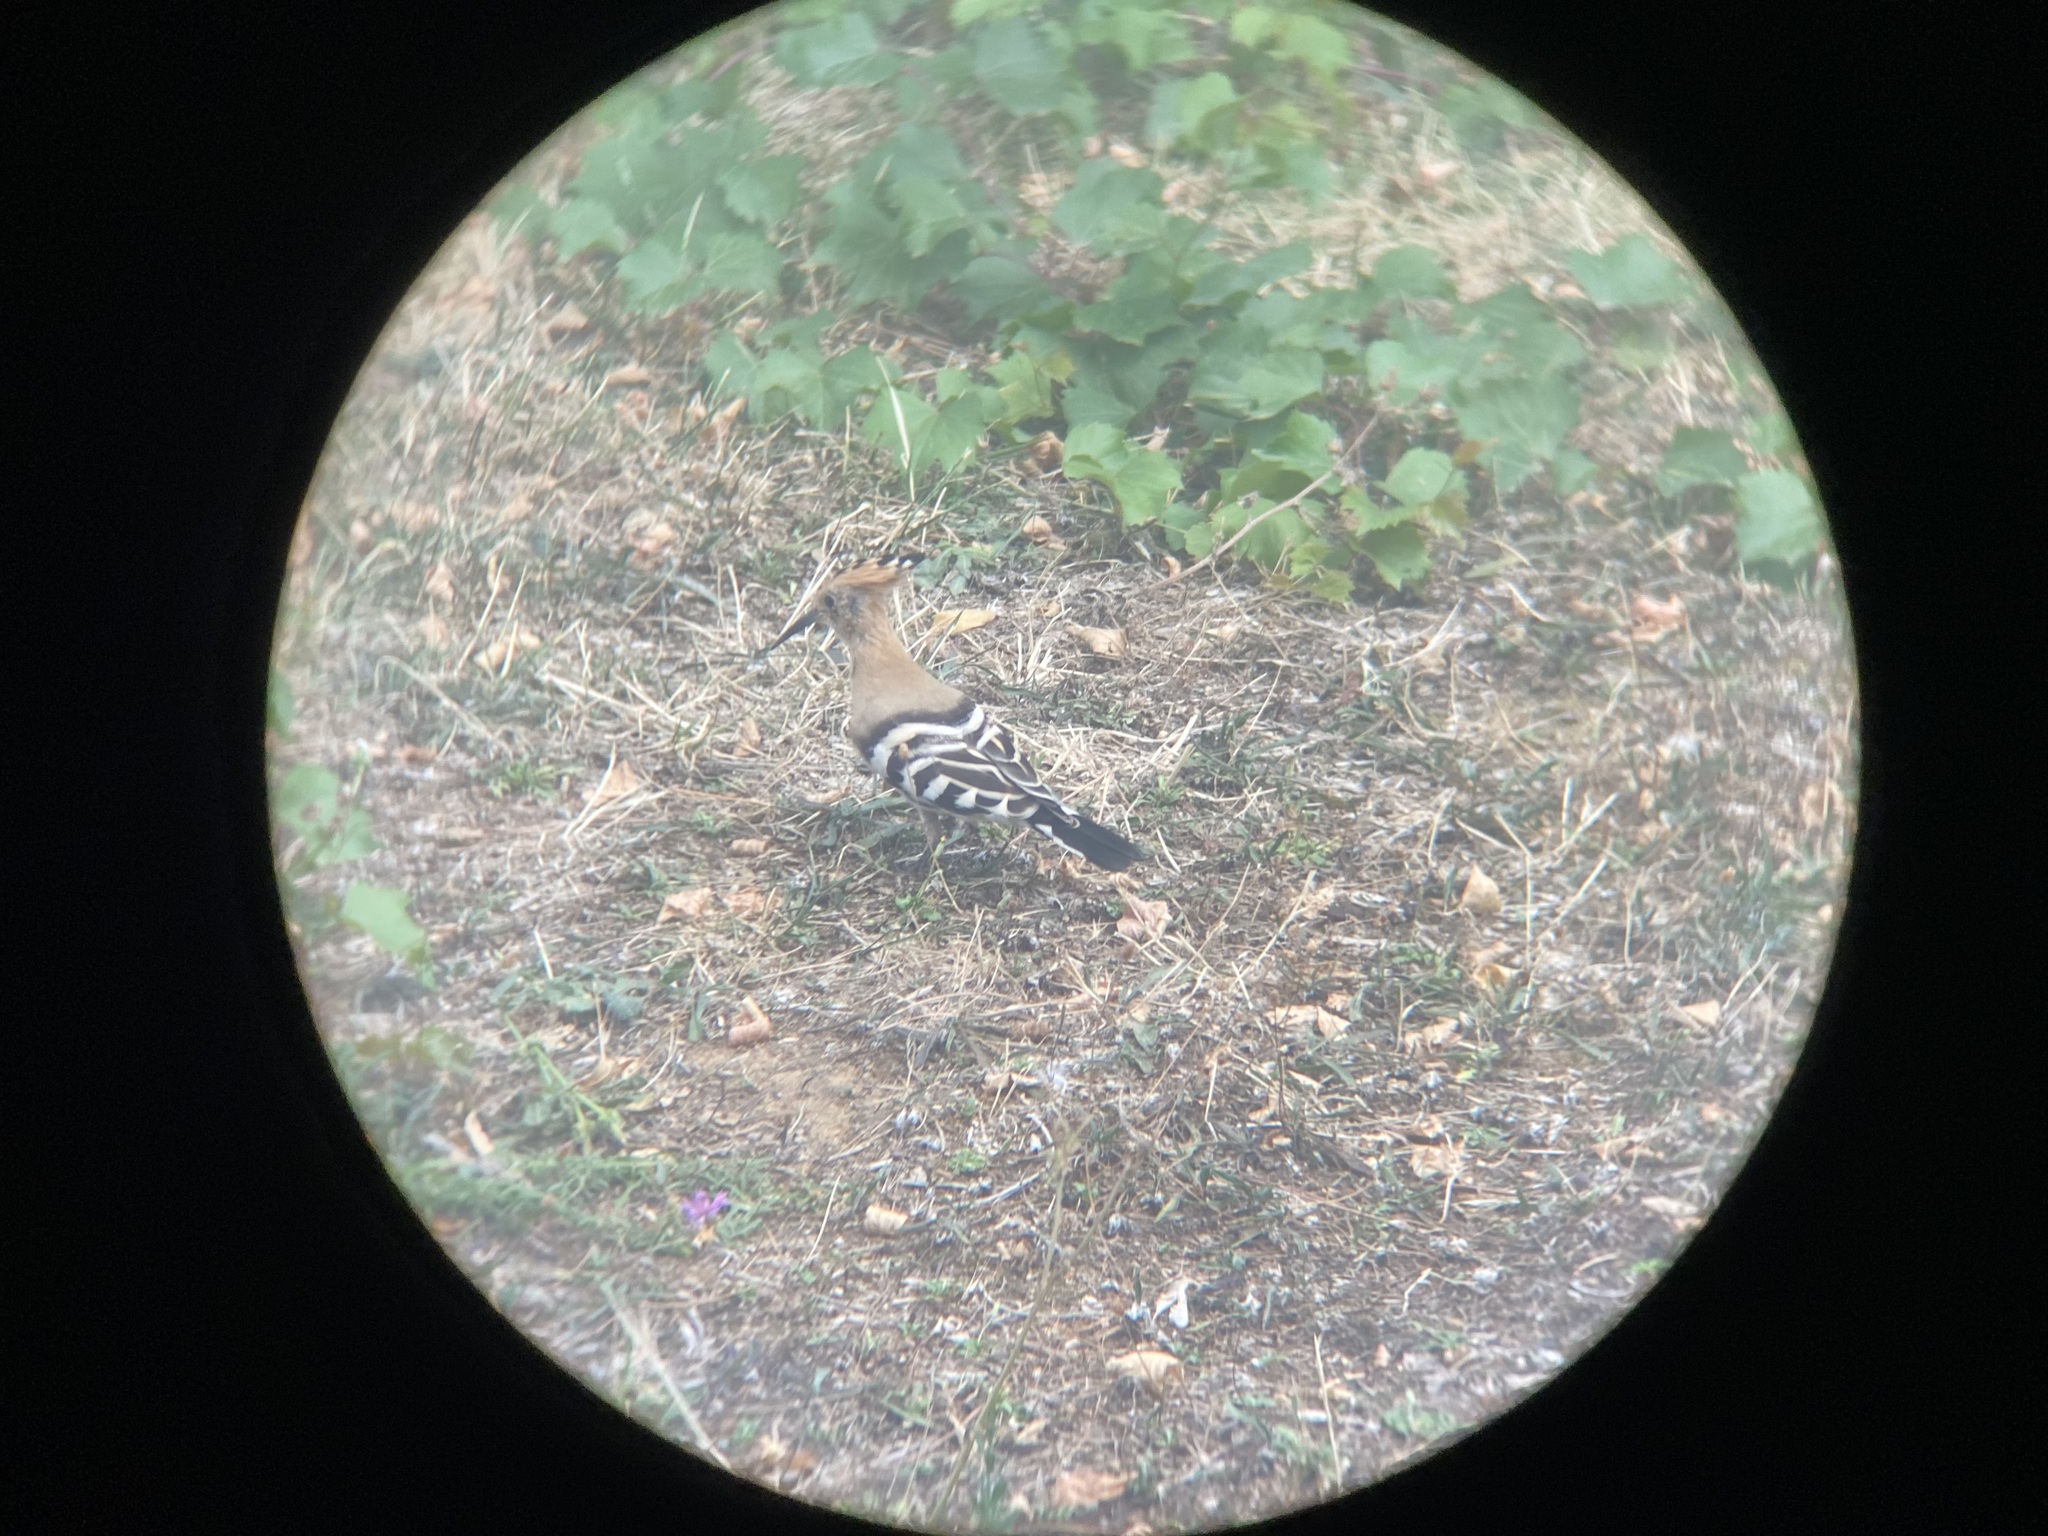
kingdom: Animalia
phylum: Chordata
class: Aves
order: Bucerotiformes
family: Upupidae
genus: Upupa
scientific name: Upupa epops
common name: Eurasian hoopoe
